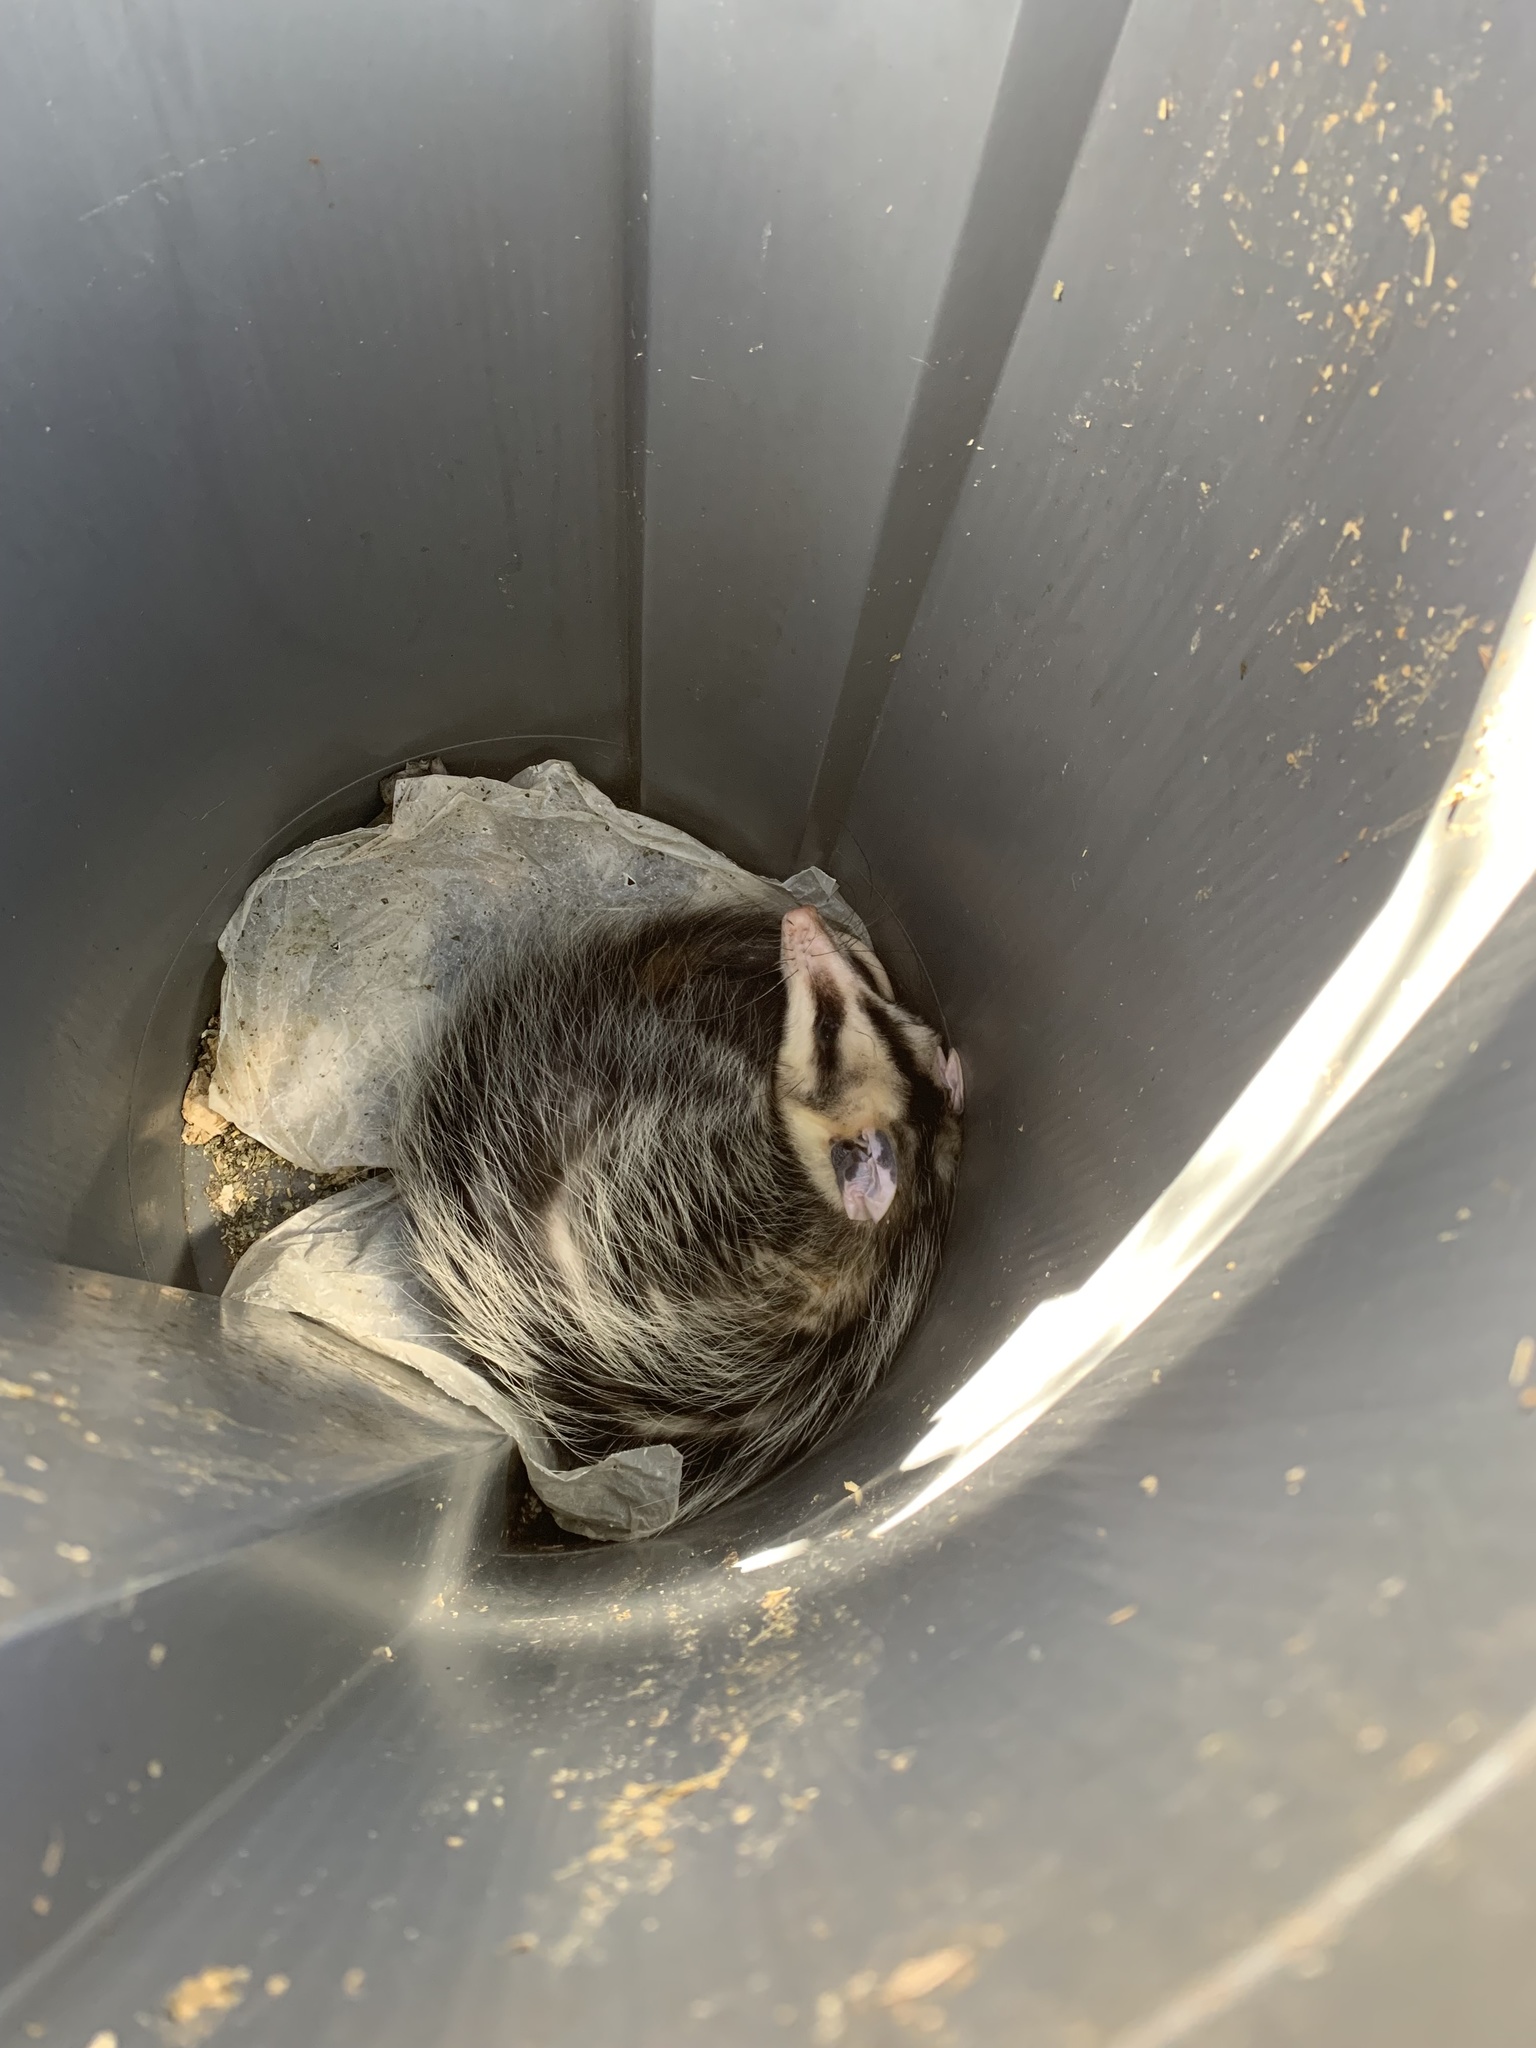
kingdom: Animalia
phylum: Chordata
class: Mammalia
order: Didelphimorphia
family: Didelphidae
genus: Didelphis
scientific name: Didelphis albiventris
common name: White-eared opossum
